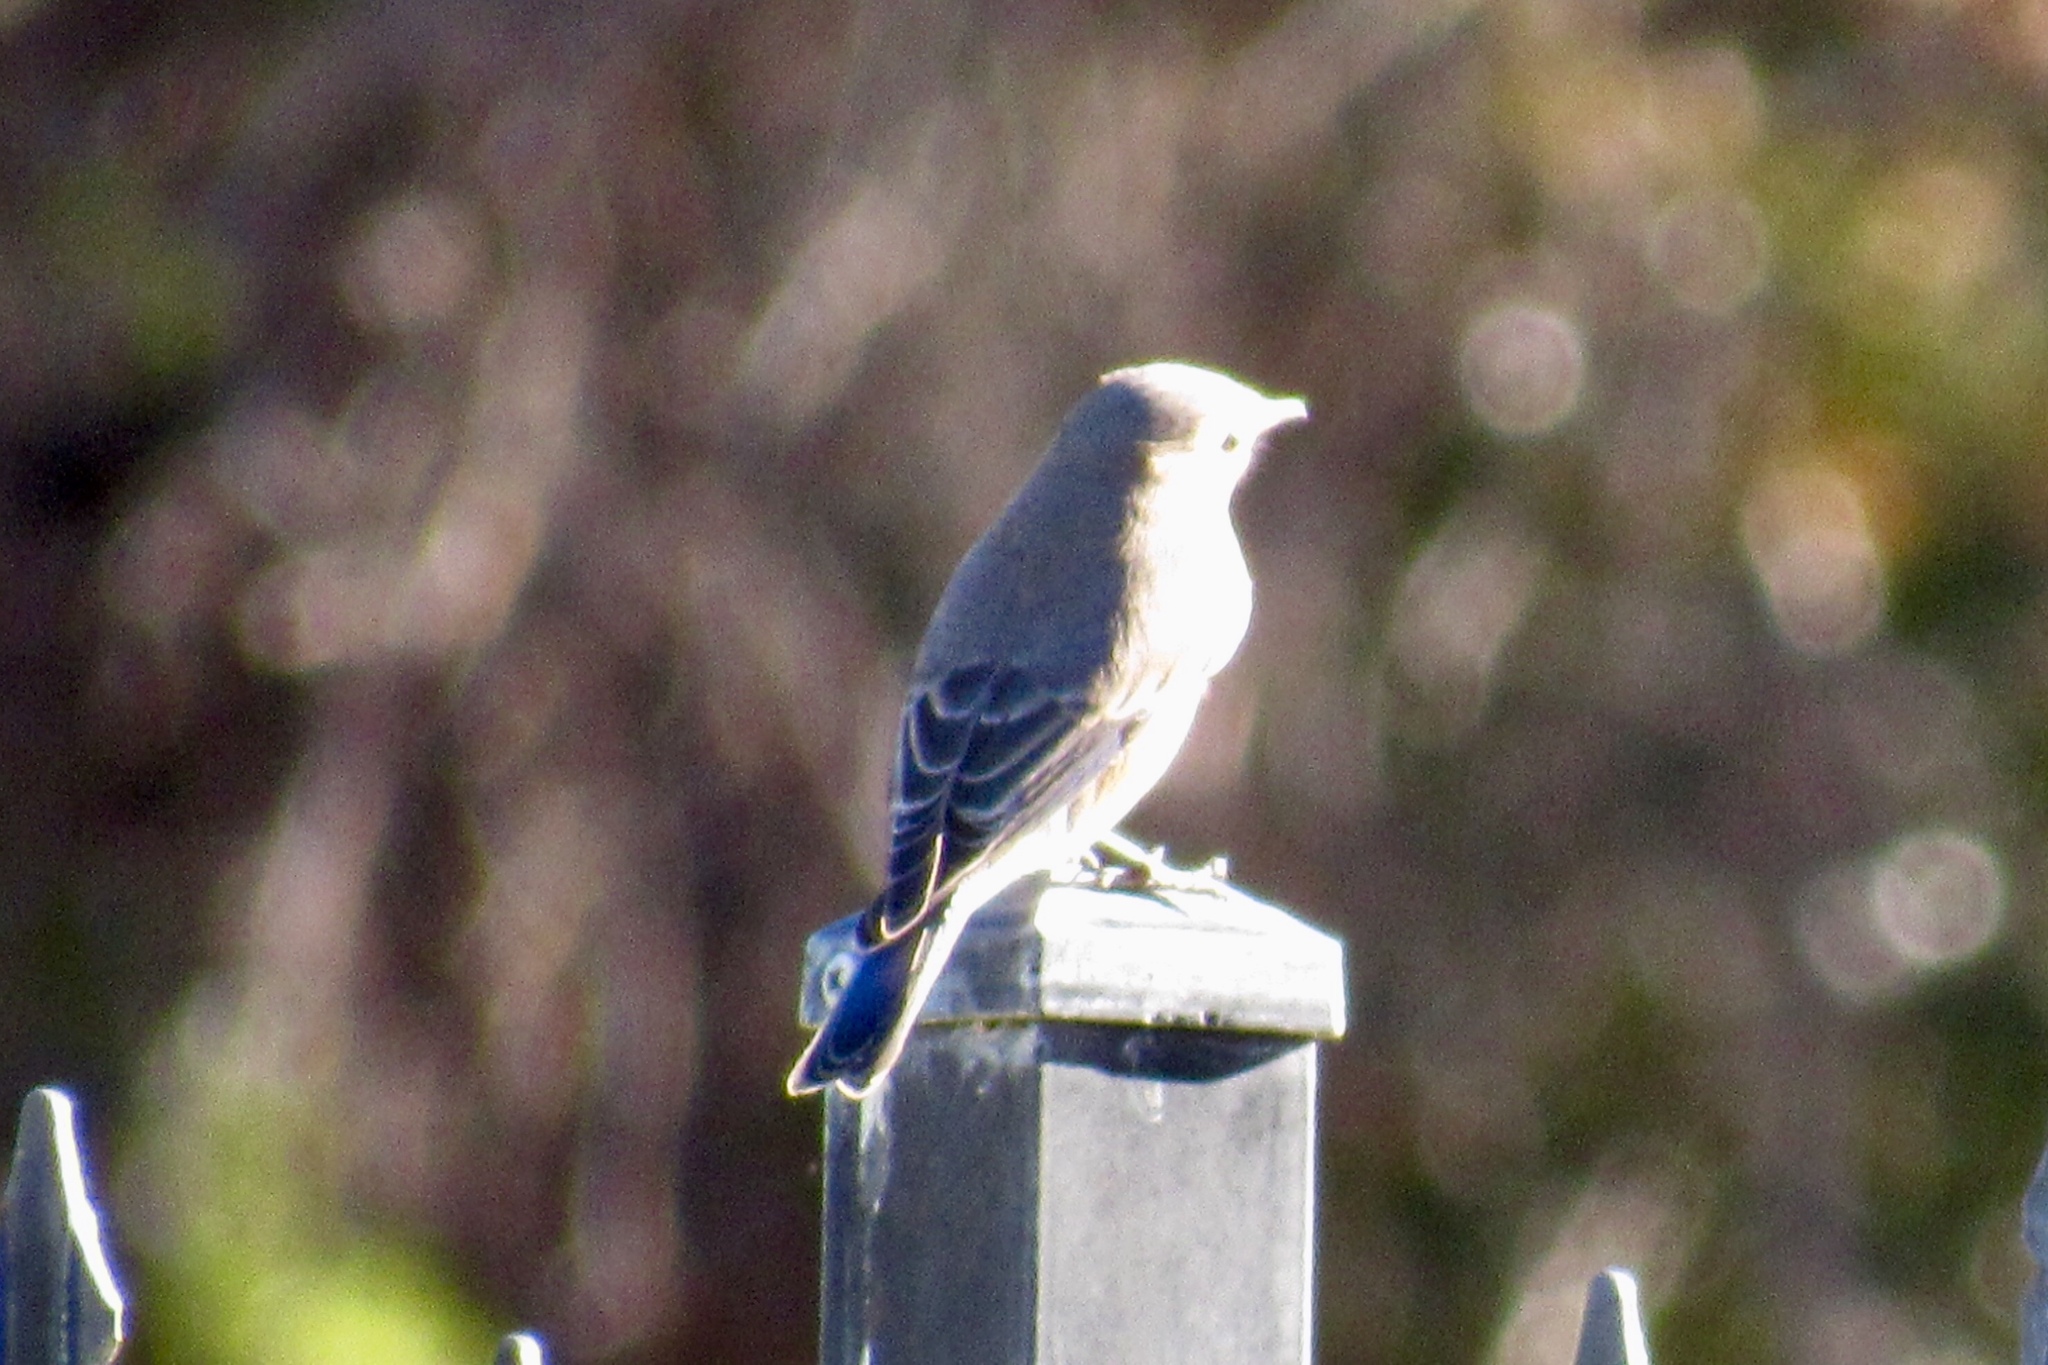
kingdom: Animalia
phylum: Chordata
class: Aves
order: Passeriformes
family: Turdidae
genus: Sialia
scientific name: Sialia sialis
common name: Eastern bluebird
